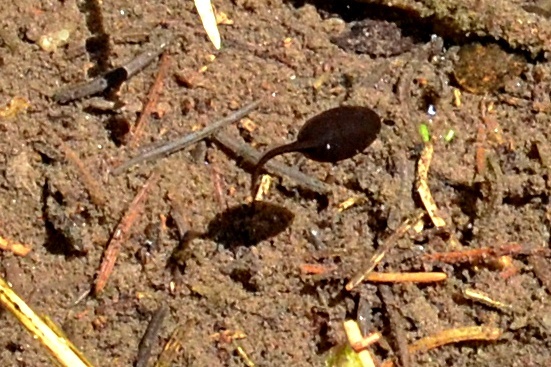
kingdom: Animalia
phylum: Chordata
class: Amphibia
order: Anura
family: Bufonidae
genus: Bufo
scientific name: Bufo bufo
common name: Common toad
